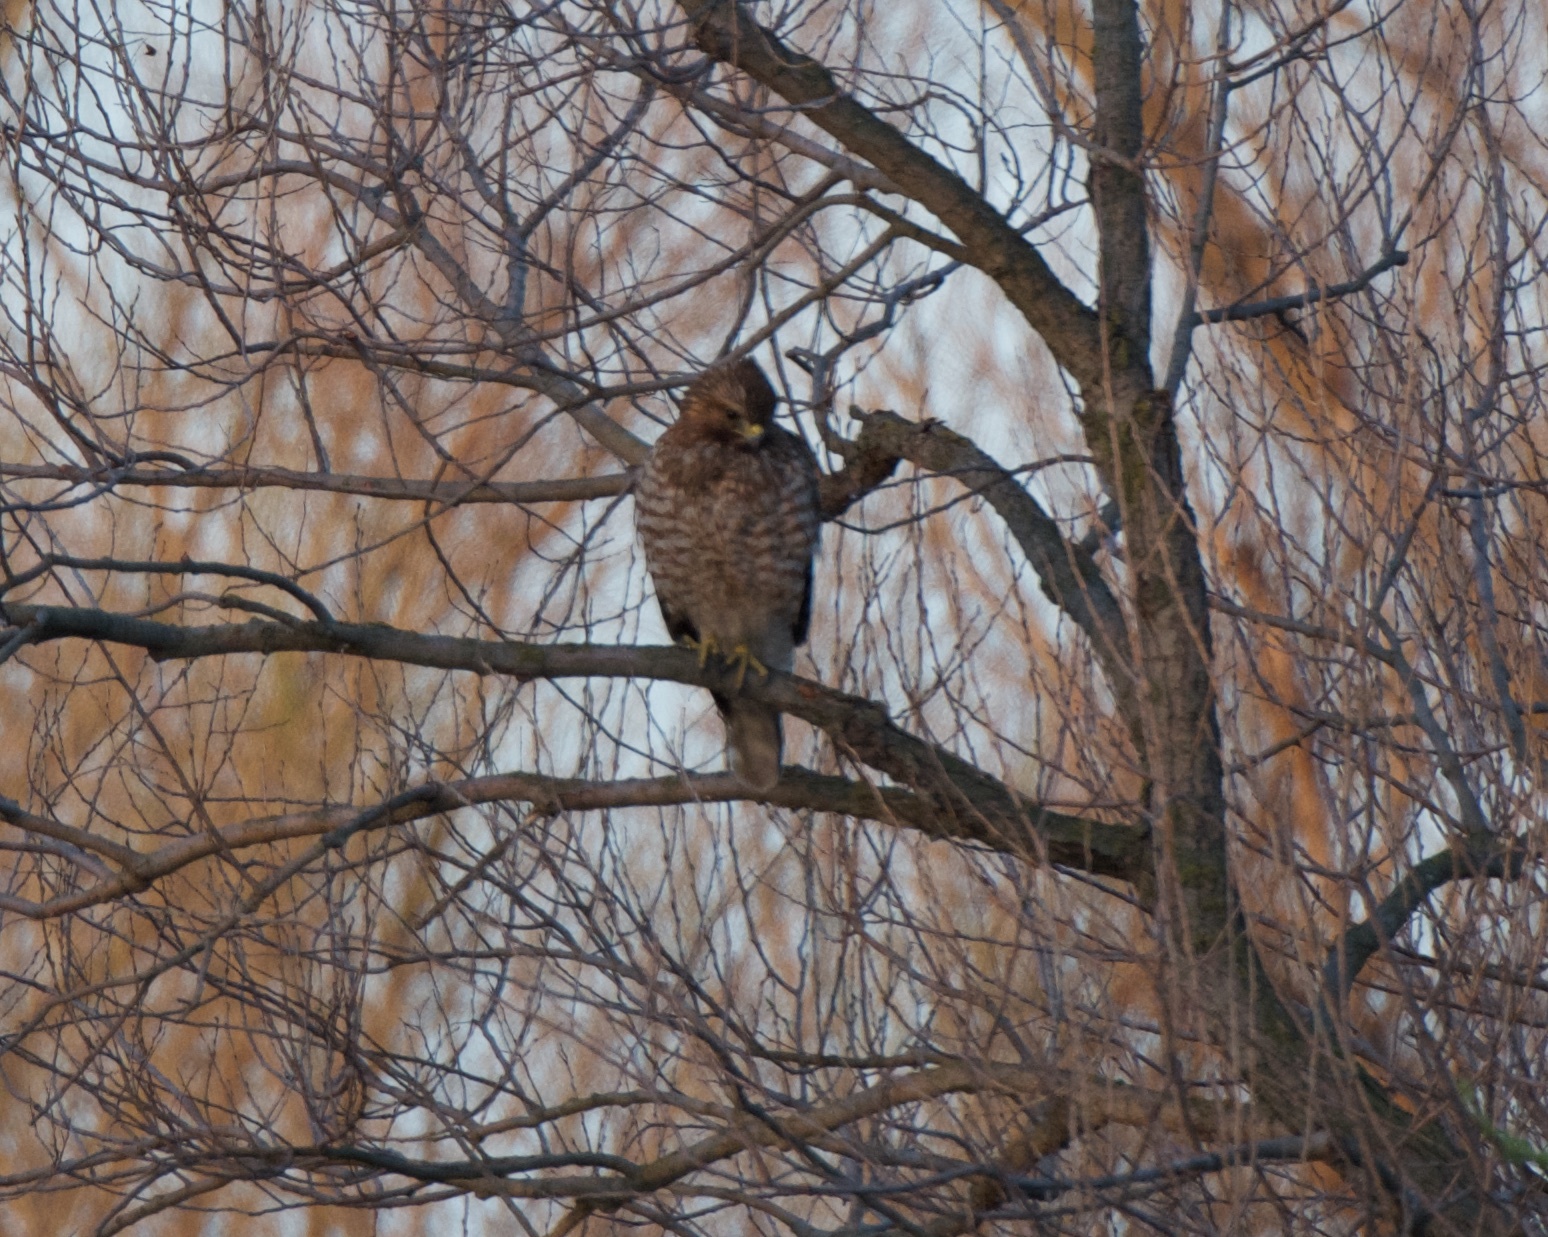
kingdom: Animalia
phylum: Chordata
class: Aves
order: Accipitriformes
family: Accipitridae
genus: Buteo
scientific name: Buteo lineatus
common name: Red-shouldered hawk
